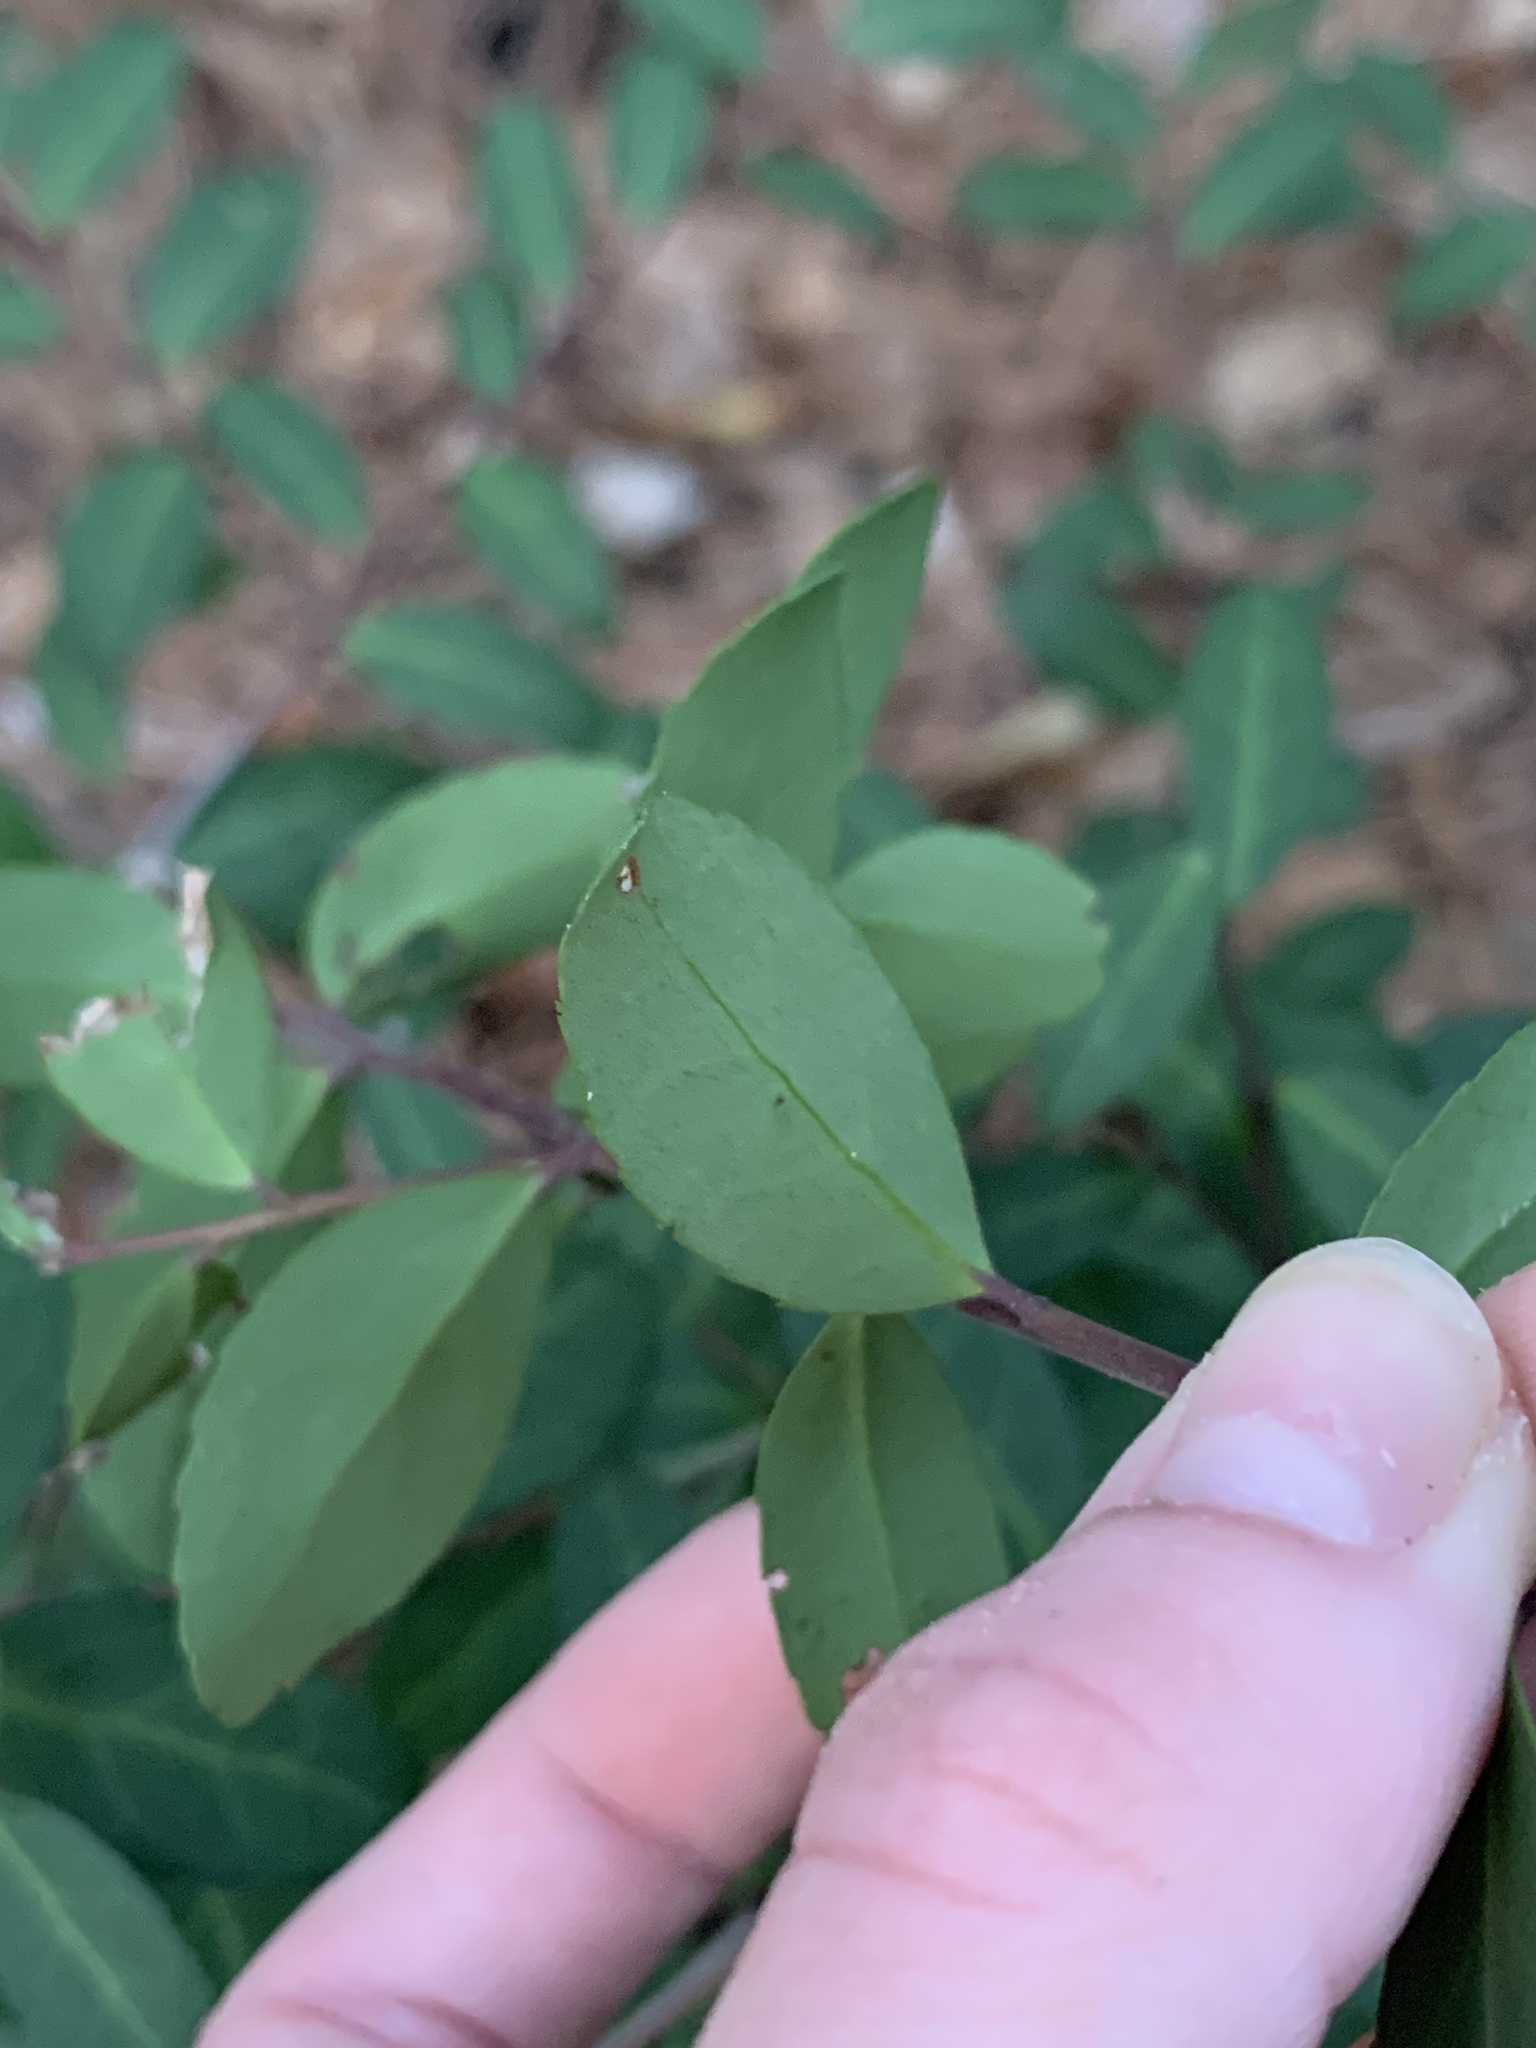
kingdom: Plantae
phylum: Tracheophyta
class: Magnoliopsida
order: Aquifoliales
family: Aquifoliaceae
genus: Ilex
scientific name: Ilex vomitoria
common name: Yaupon holly
